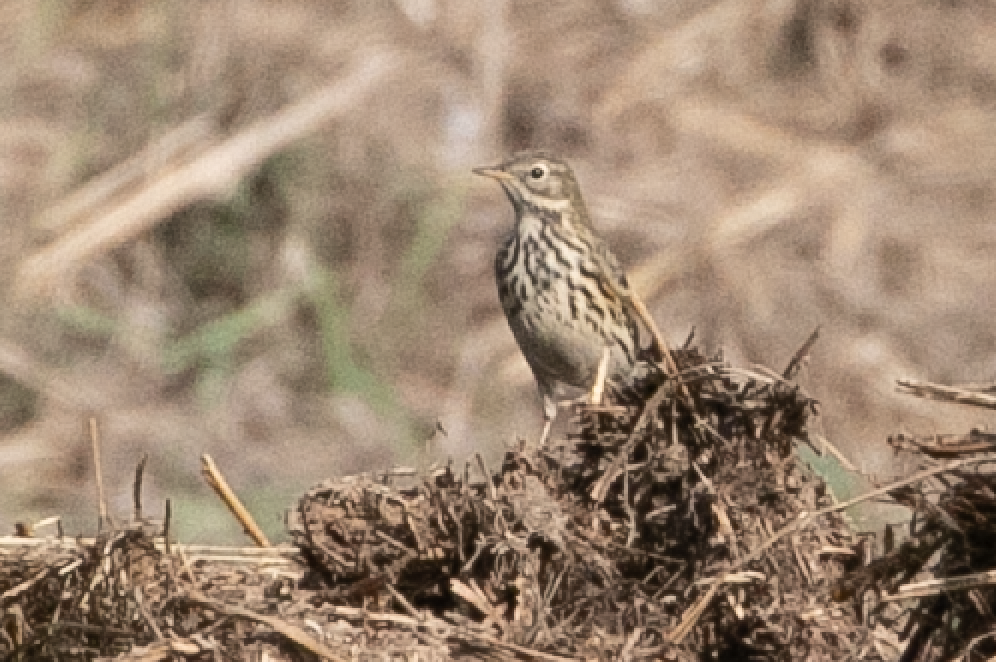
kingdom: Animalia
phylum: Chordata
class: Aves
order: Passeriformes
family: Motacillidae
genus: Anthus
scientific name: Anthus pratensis
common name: Meadow pipit
